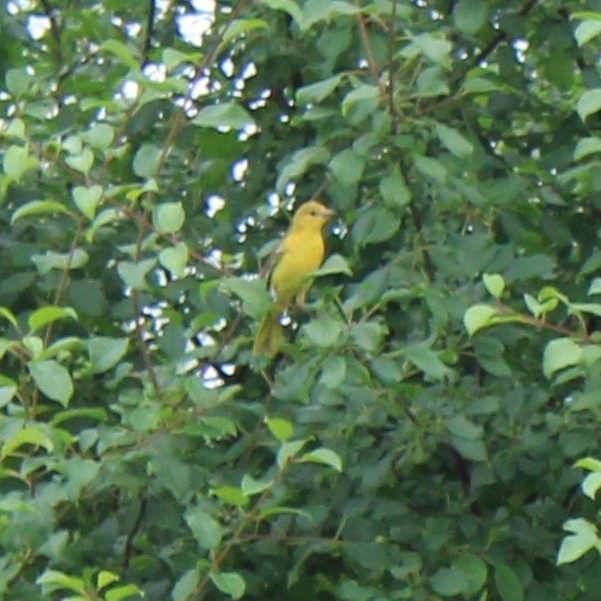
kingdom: Animalia
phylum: Chordata
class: Aves
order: Passeriformes
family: Icteridae
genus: Icterus
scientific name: Icterus spurius
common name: Orchard oriole
